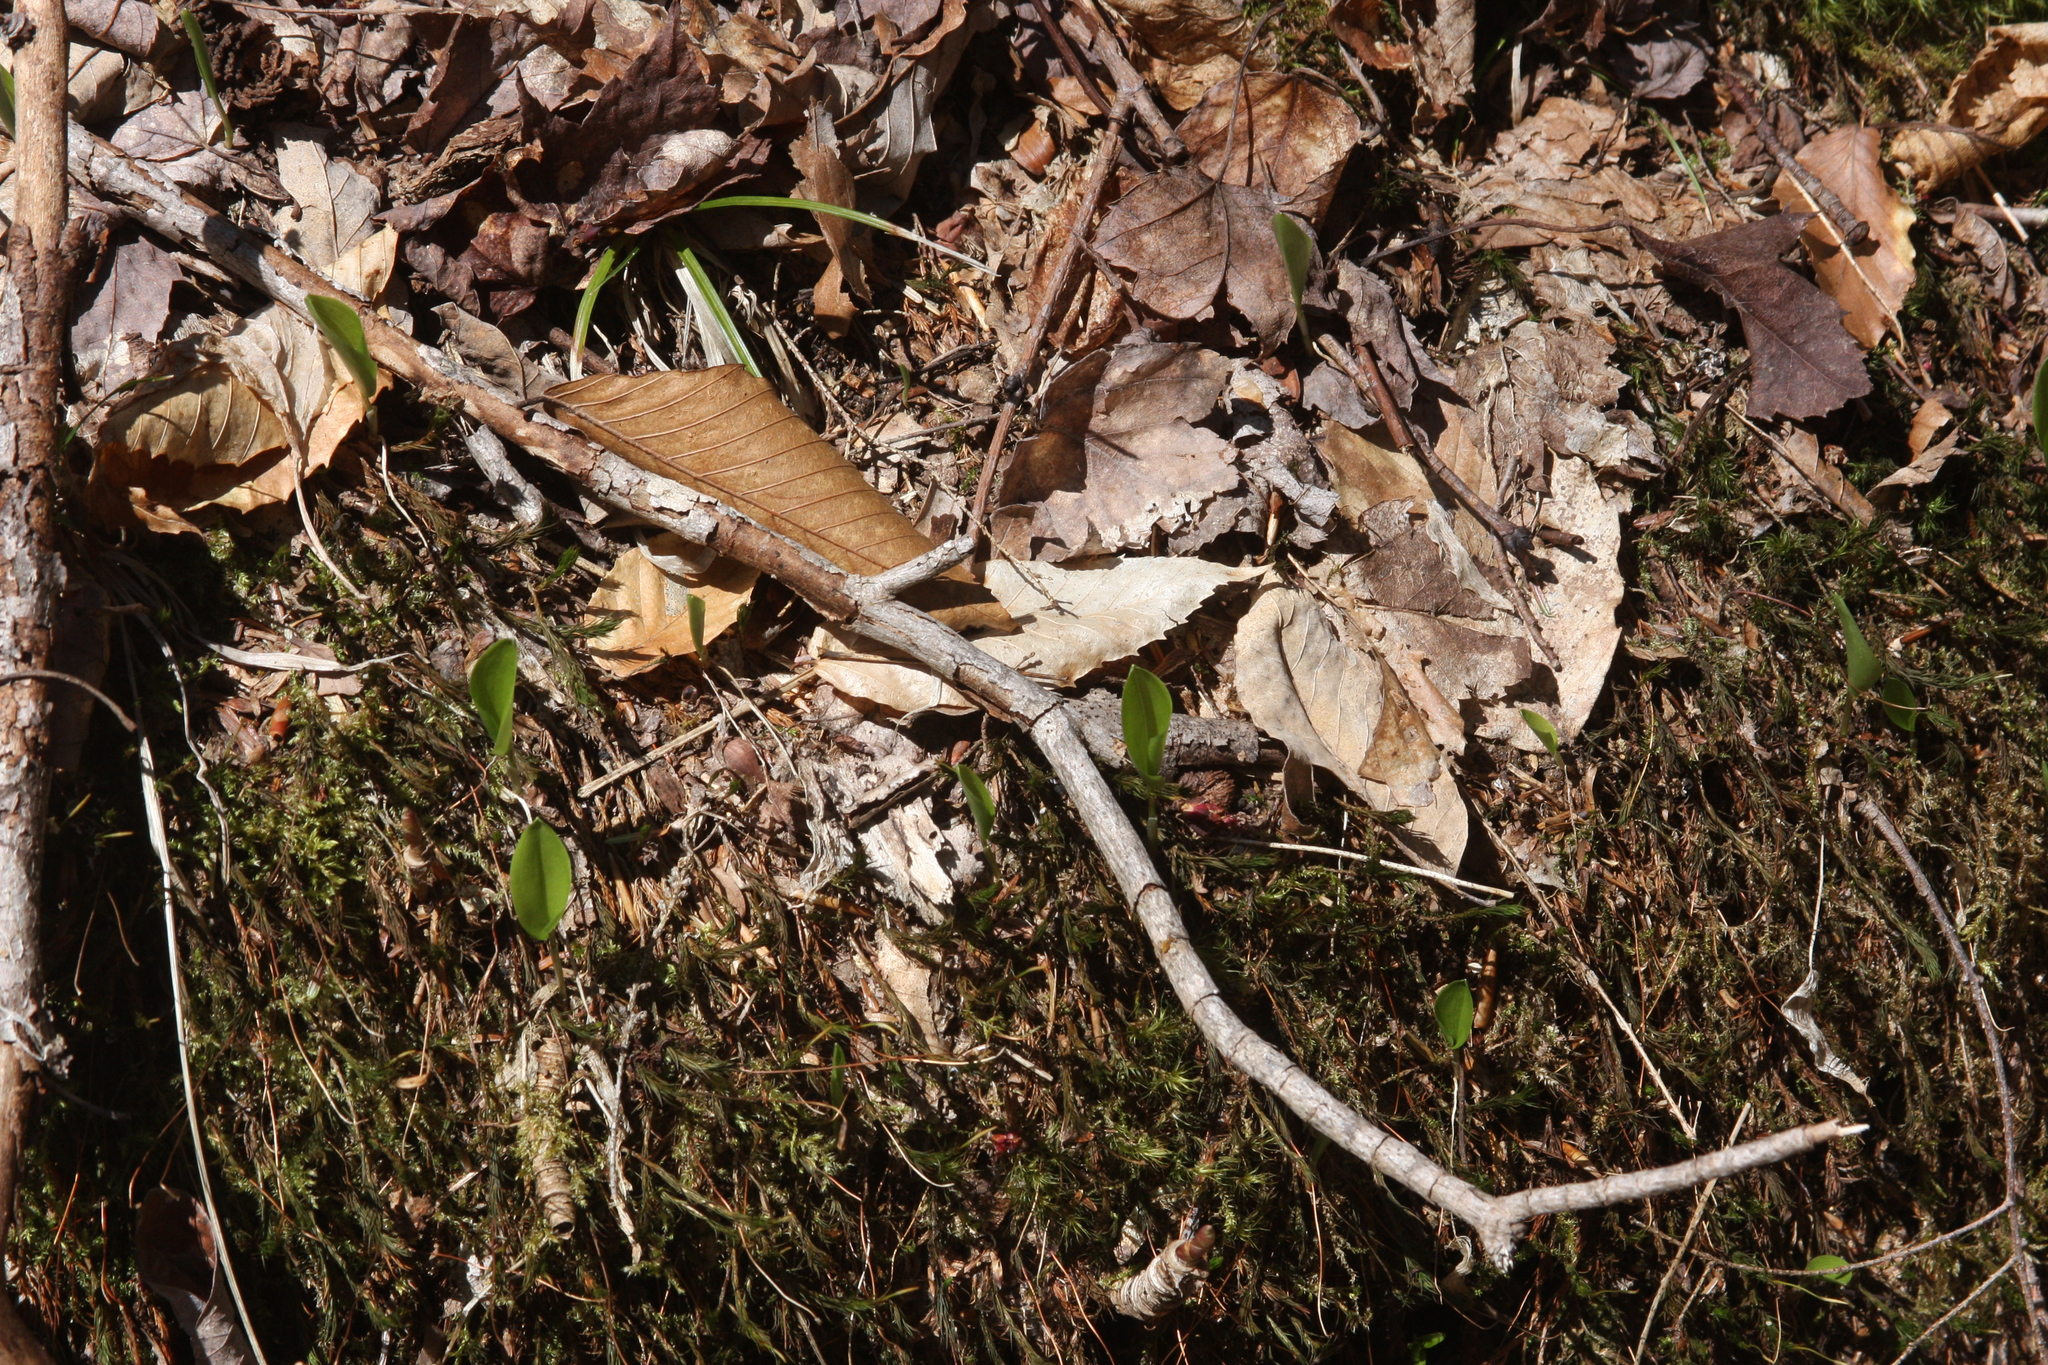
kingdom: Plantae
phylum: Tracheophyta
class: Liliopsida
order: Asparagales
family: Asparagaceae
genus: Maianthemum
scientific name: Maianthemum canadense
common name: False lily-of-the-valley
